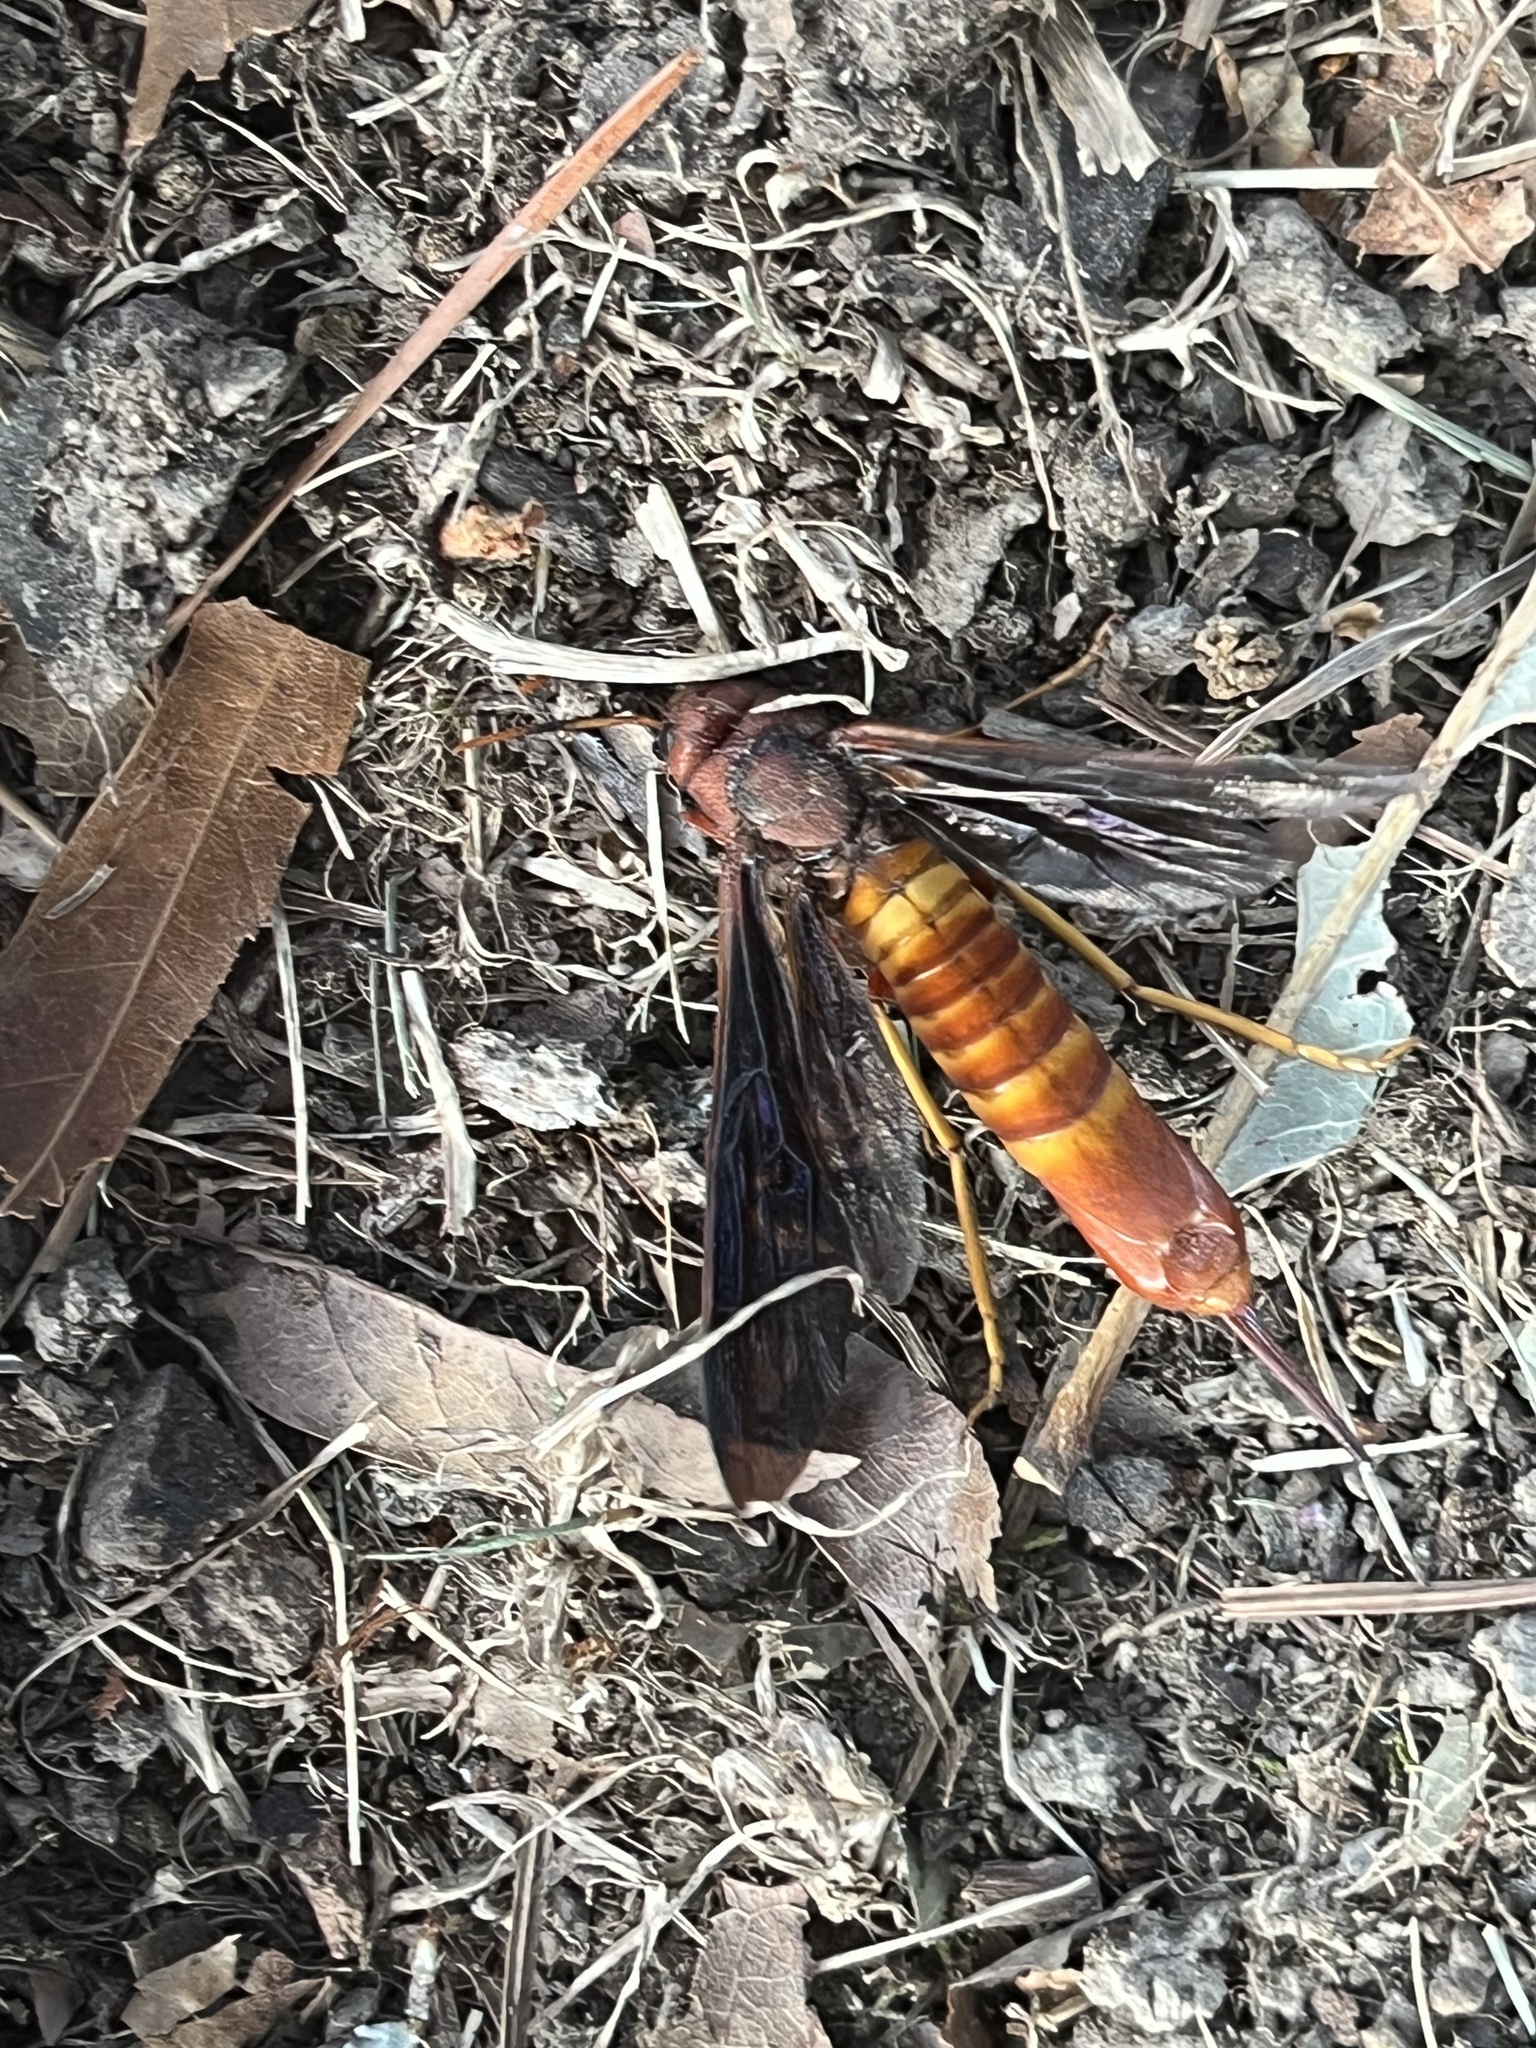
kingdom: Animalia
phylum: Arthropoda
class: Insecta
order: Hymenoptera
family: Siricidae
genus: Tremex
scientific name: Tremex columba
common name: Wasp
